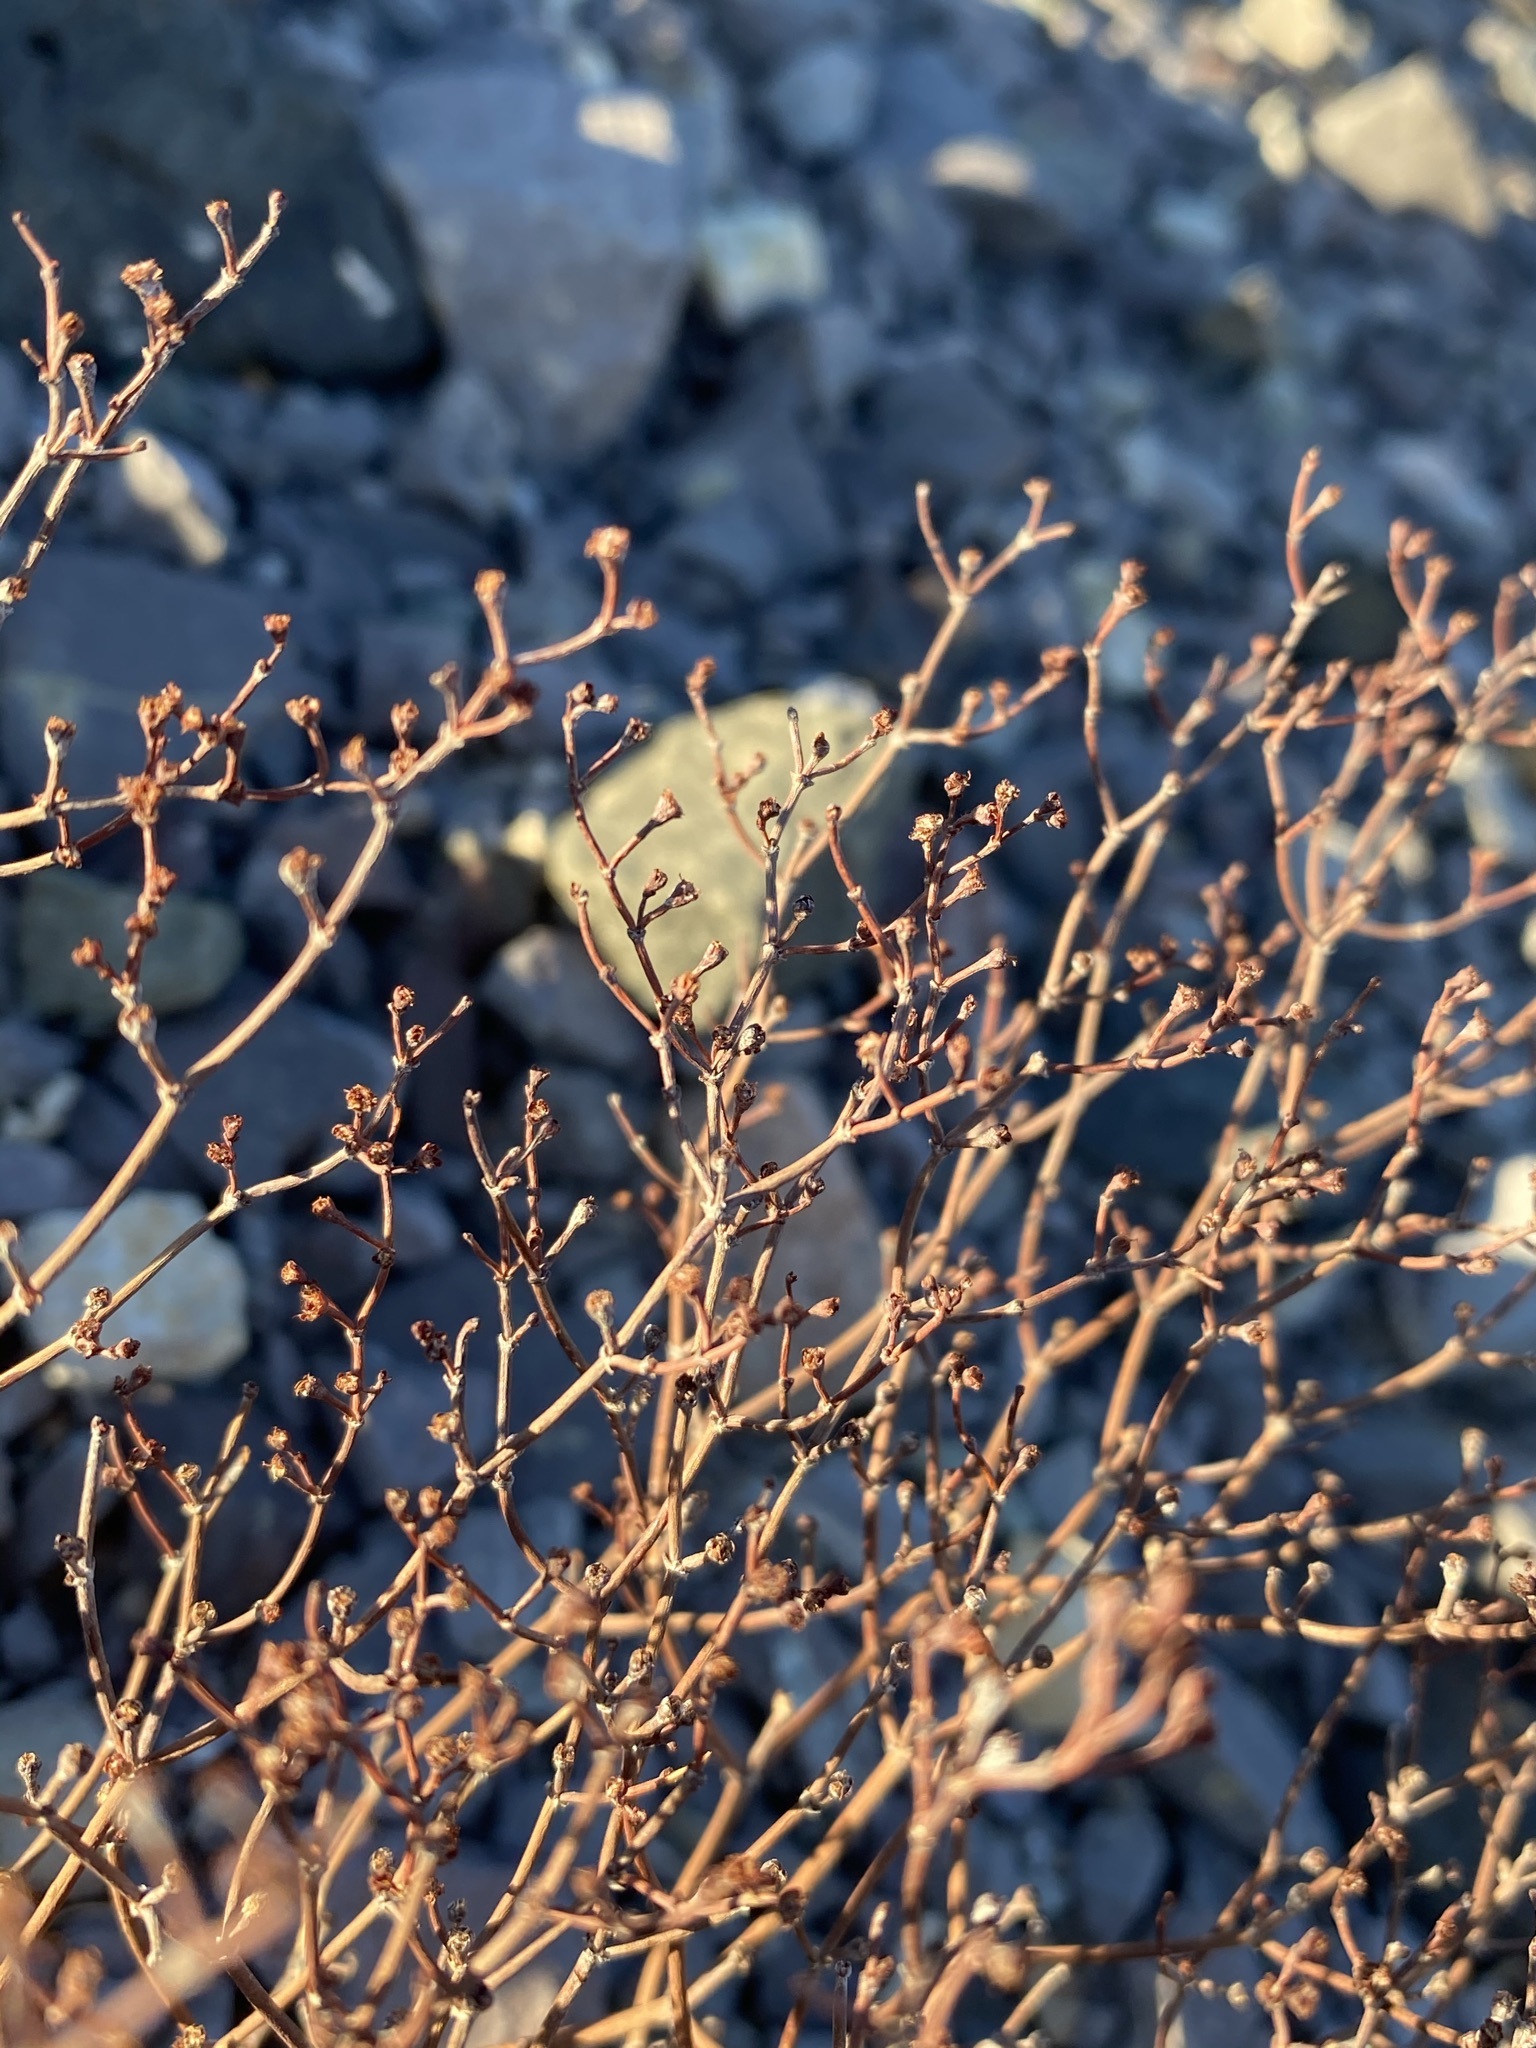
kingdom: Plantae
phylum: Tracheophyta
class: Magnoliopsida
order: Caryophyllales
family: Polygonaceae
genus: Eriogonum
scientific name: Eriogonum rotundifolium
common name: Round-leaf wild buckwheat
